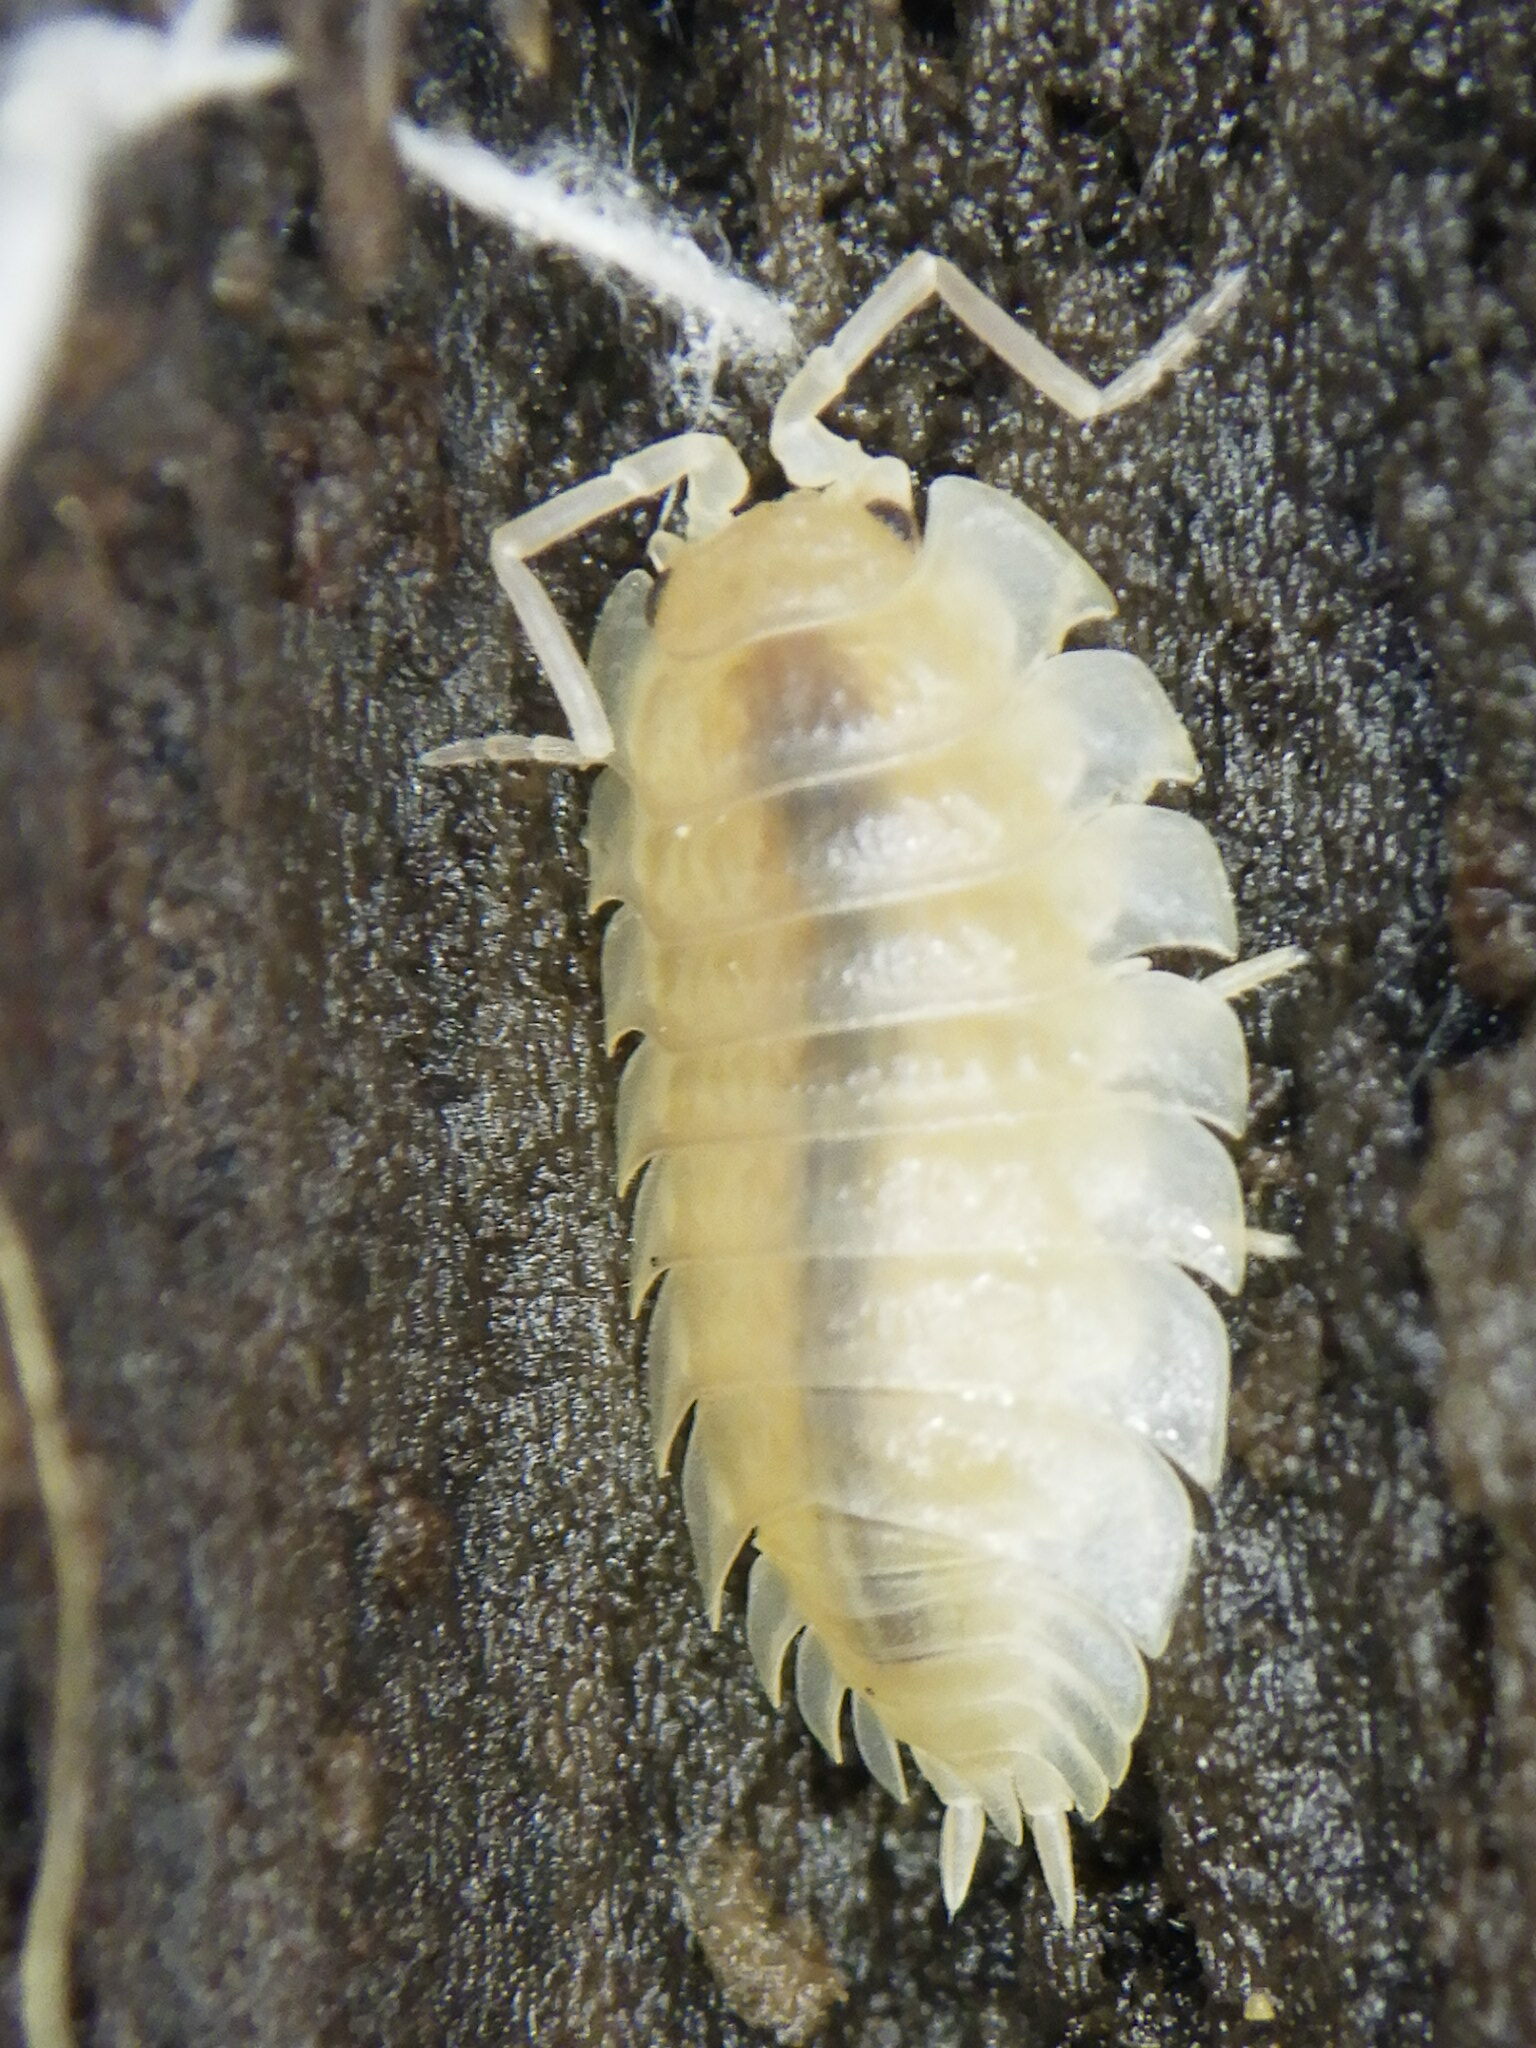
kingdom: Animalia
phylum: Arthropoda
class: Malacostraca
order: Isopoda
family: Oniscidae
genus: Oniscus
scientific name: Oniscus asellus
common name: Common shiny woodlouse
